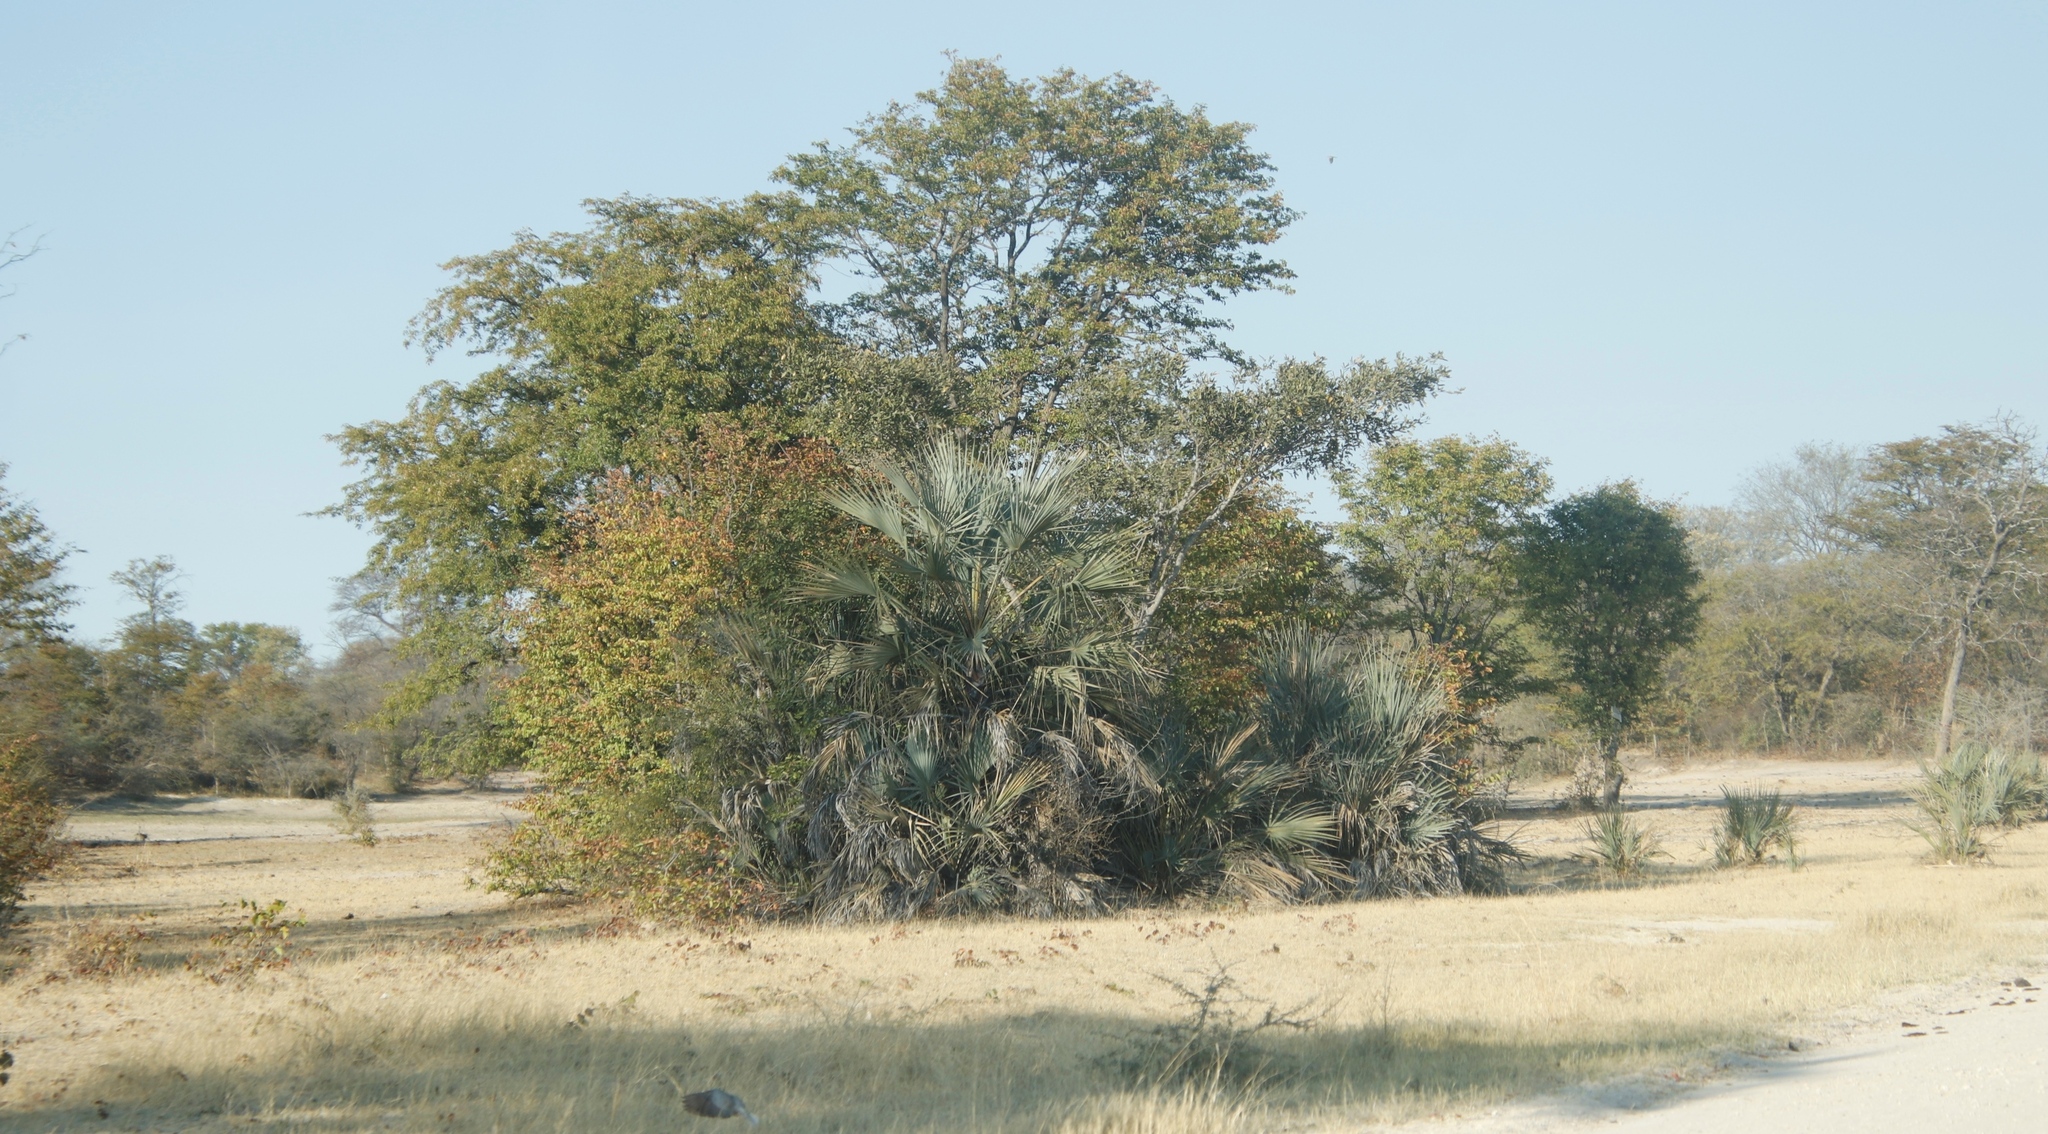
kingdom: Plantae
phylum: Tracheophyta
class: Liliopsida
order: Arecales
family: Arecaceae
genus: Hyphaene
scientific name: Hyphaene petersiana
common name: African ivory nut palm
